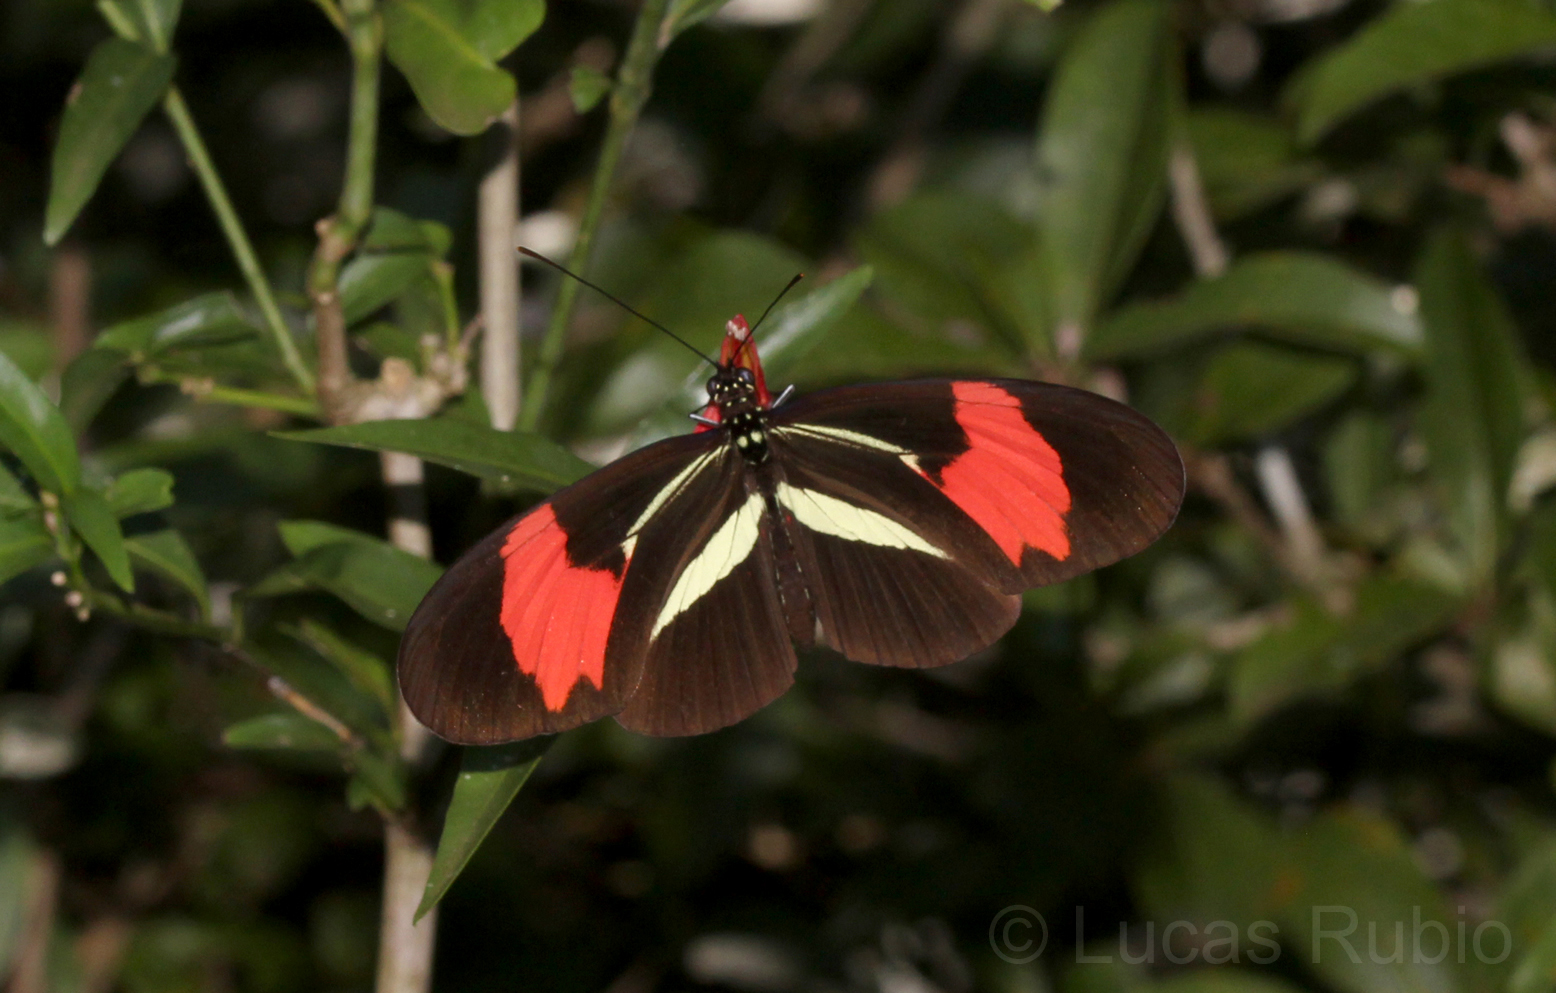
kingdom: Animalia
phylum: Arthropoda
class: Insecta
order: Lepidoptera
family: Nymphalidae
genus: Heliconius
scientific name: Heliconius erato
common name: Common patch longwing
